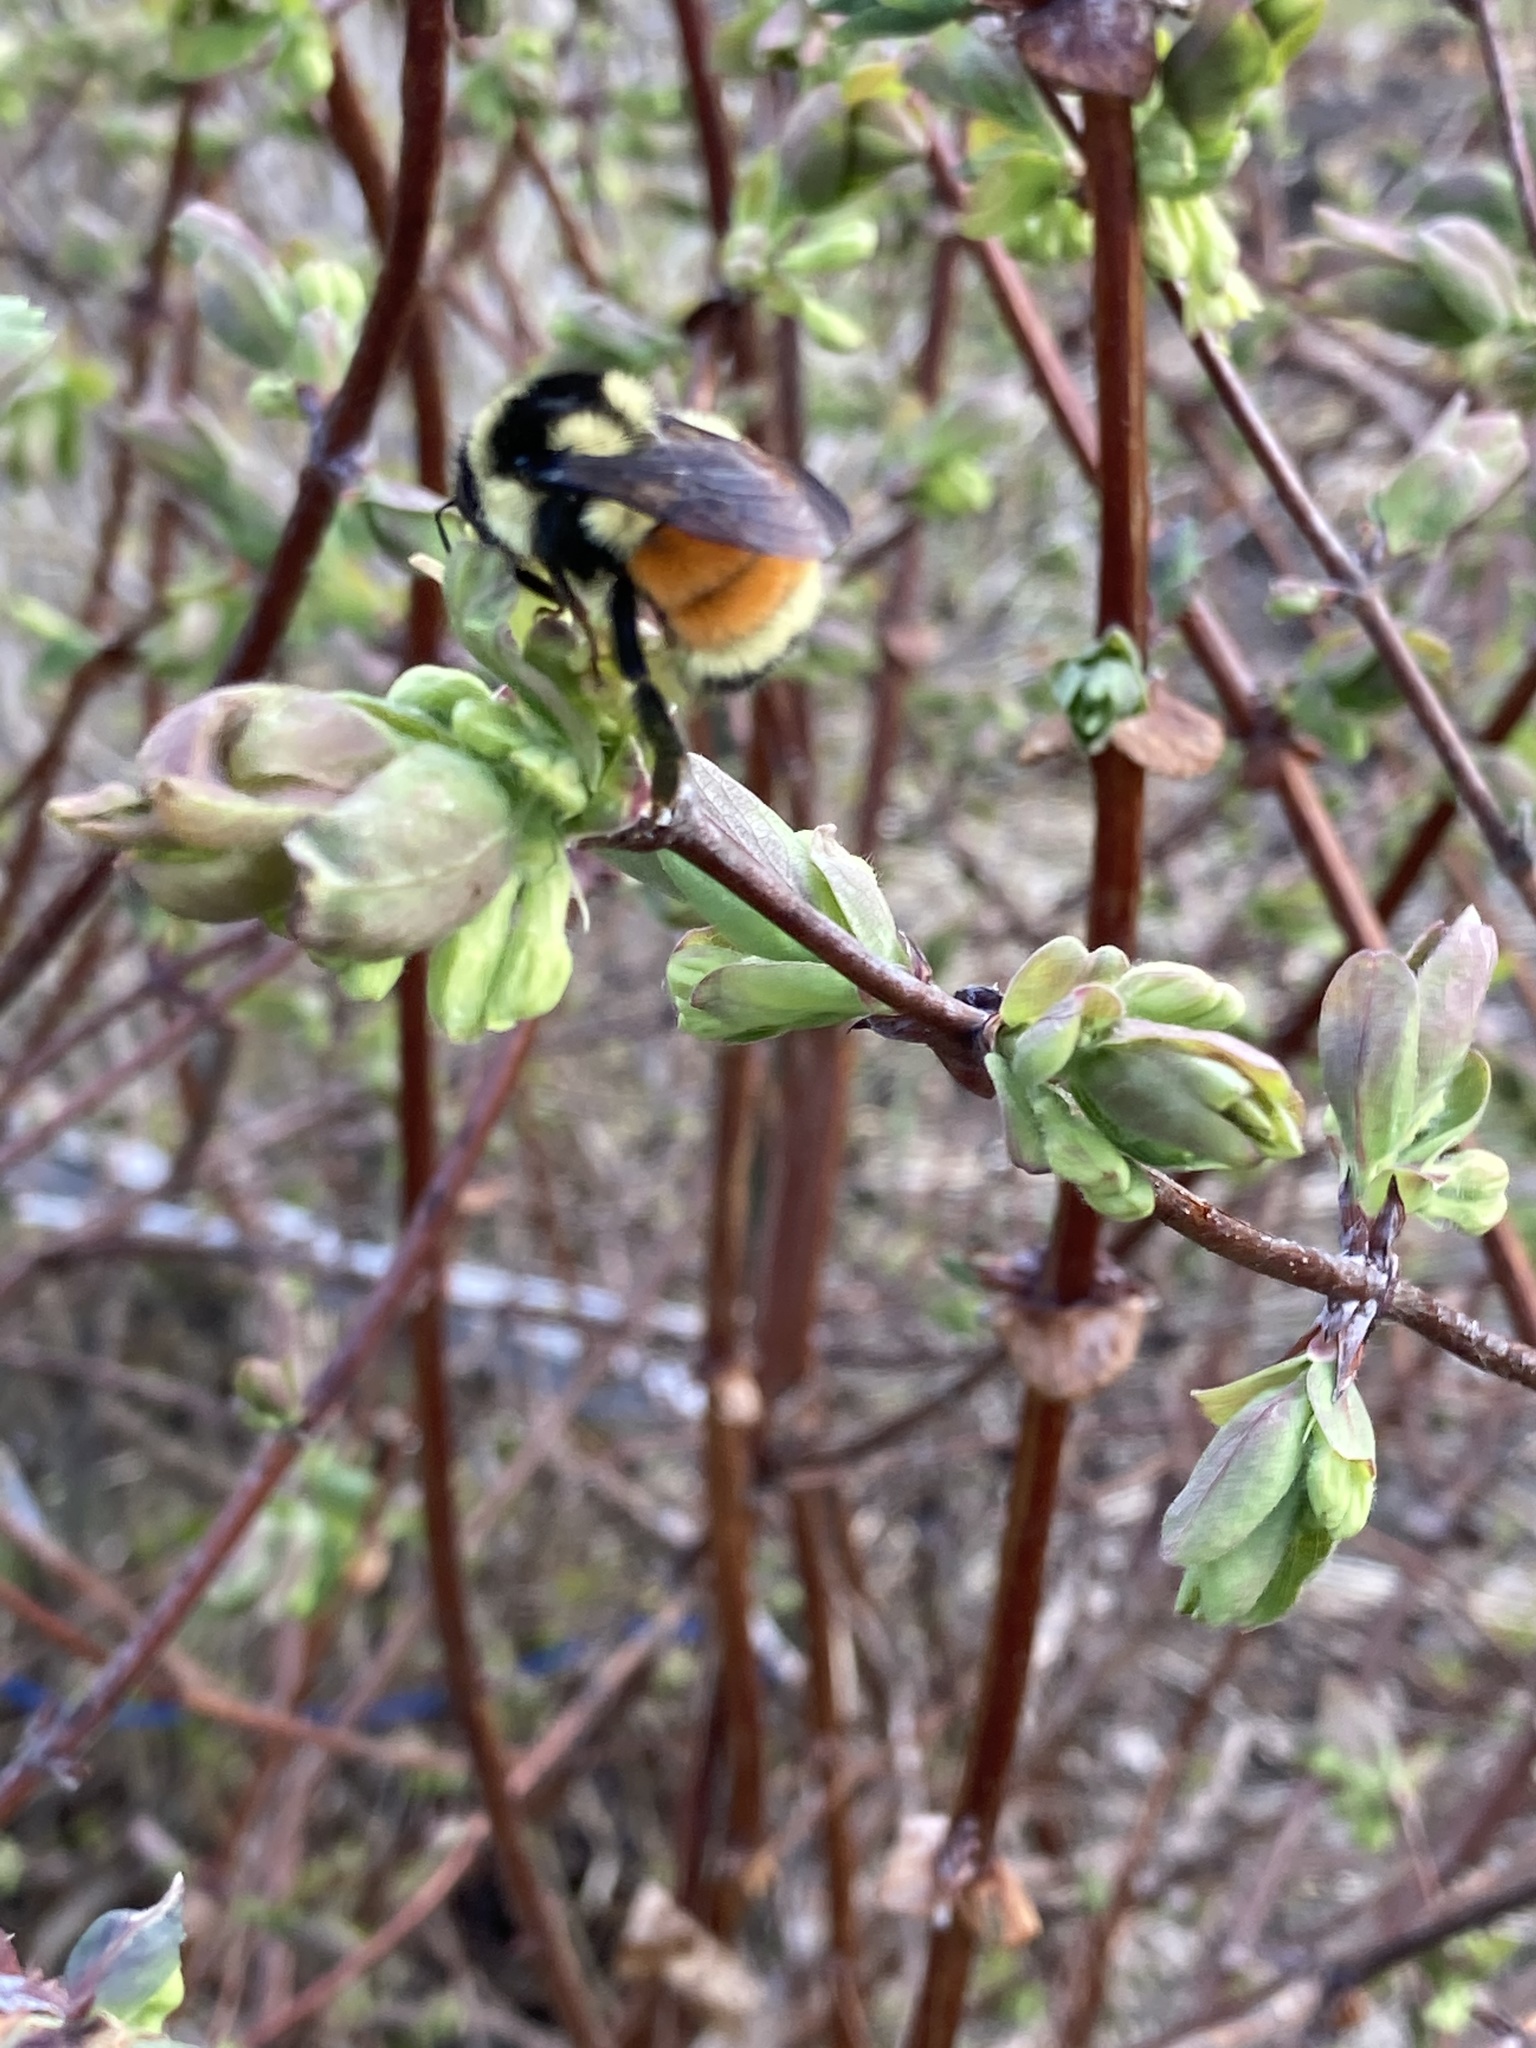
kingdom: Animalia
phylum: Arthropoda
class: Insecta
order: Hymenoptera
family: Apidae
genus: Bombus
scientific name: Bombus ternarius
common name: Tri-colored bumble bee
